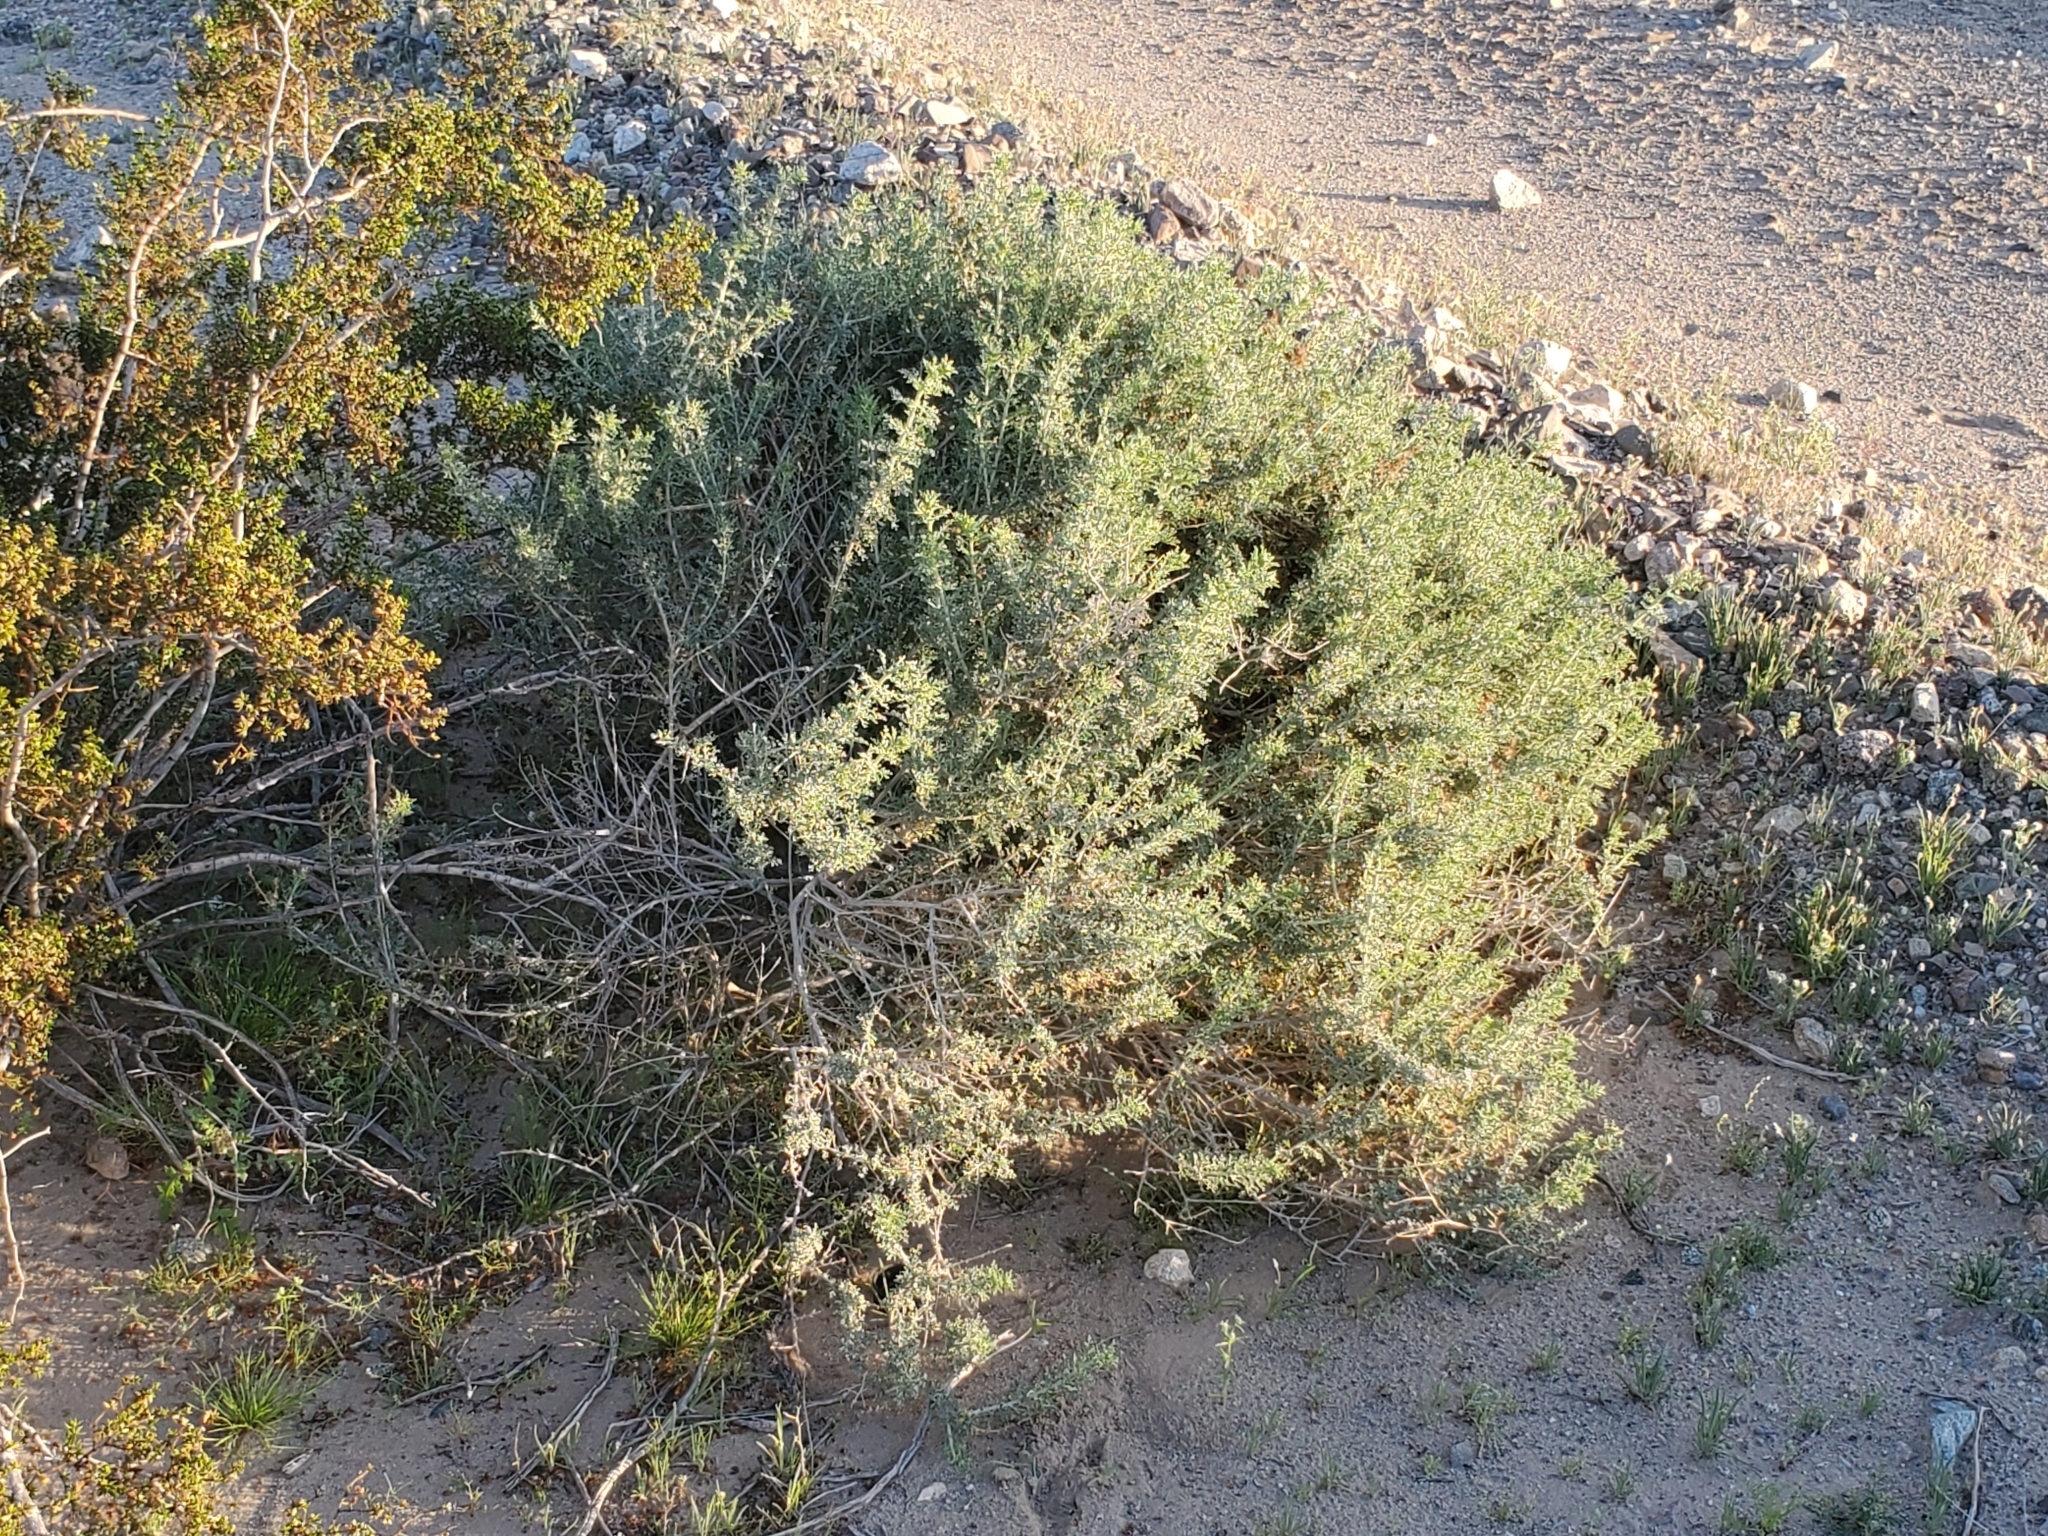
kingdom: Plantae
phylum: Tracheophyta
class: Magnoliopsida
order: Asterales
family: Asteraceae
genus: Ambrosia
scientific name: Ambrosia dumosa
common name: Bur-sage
